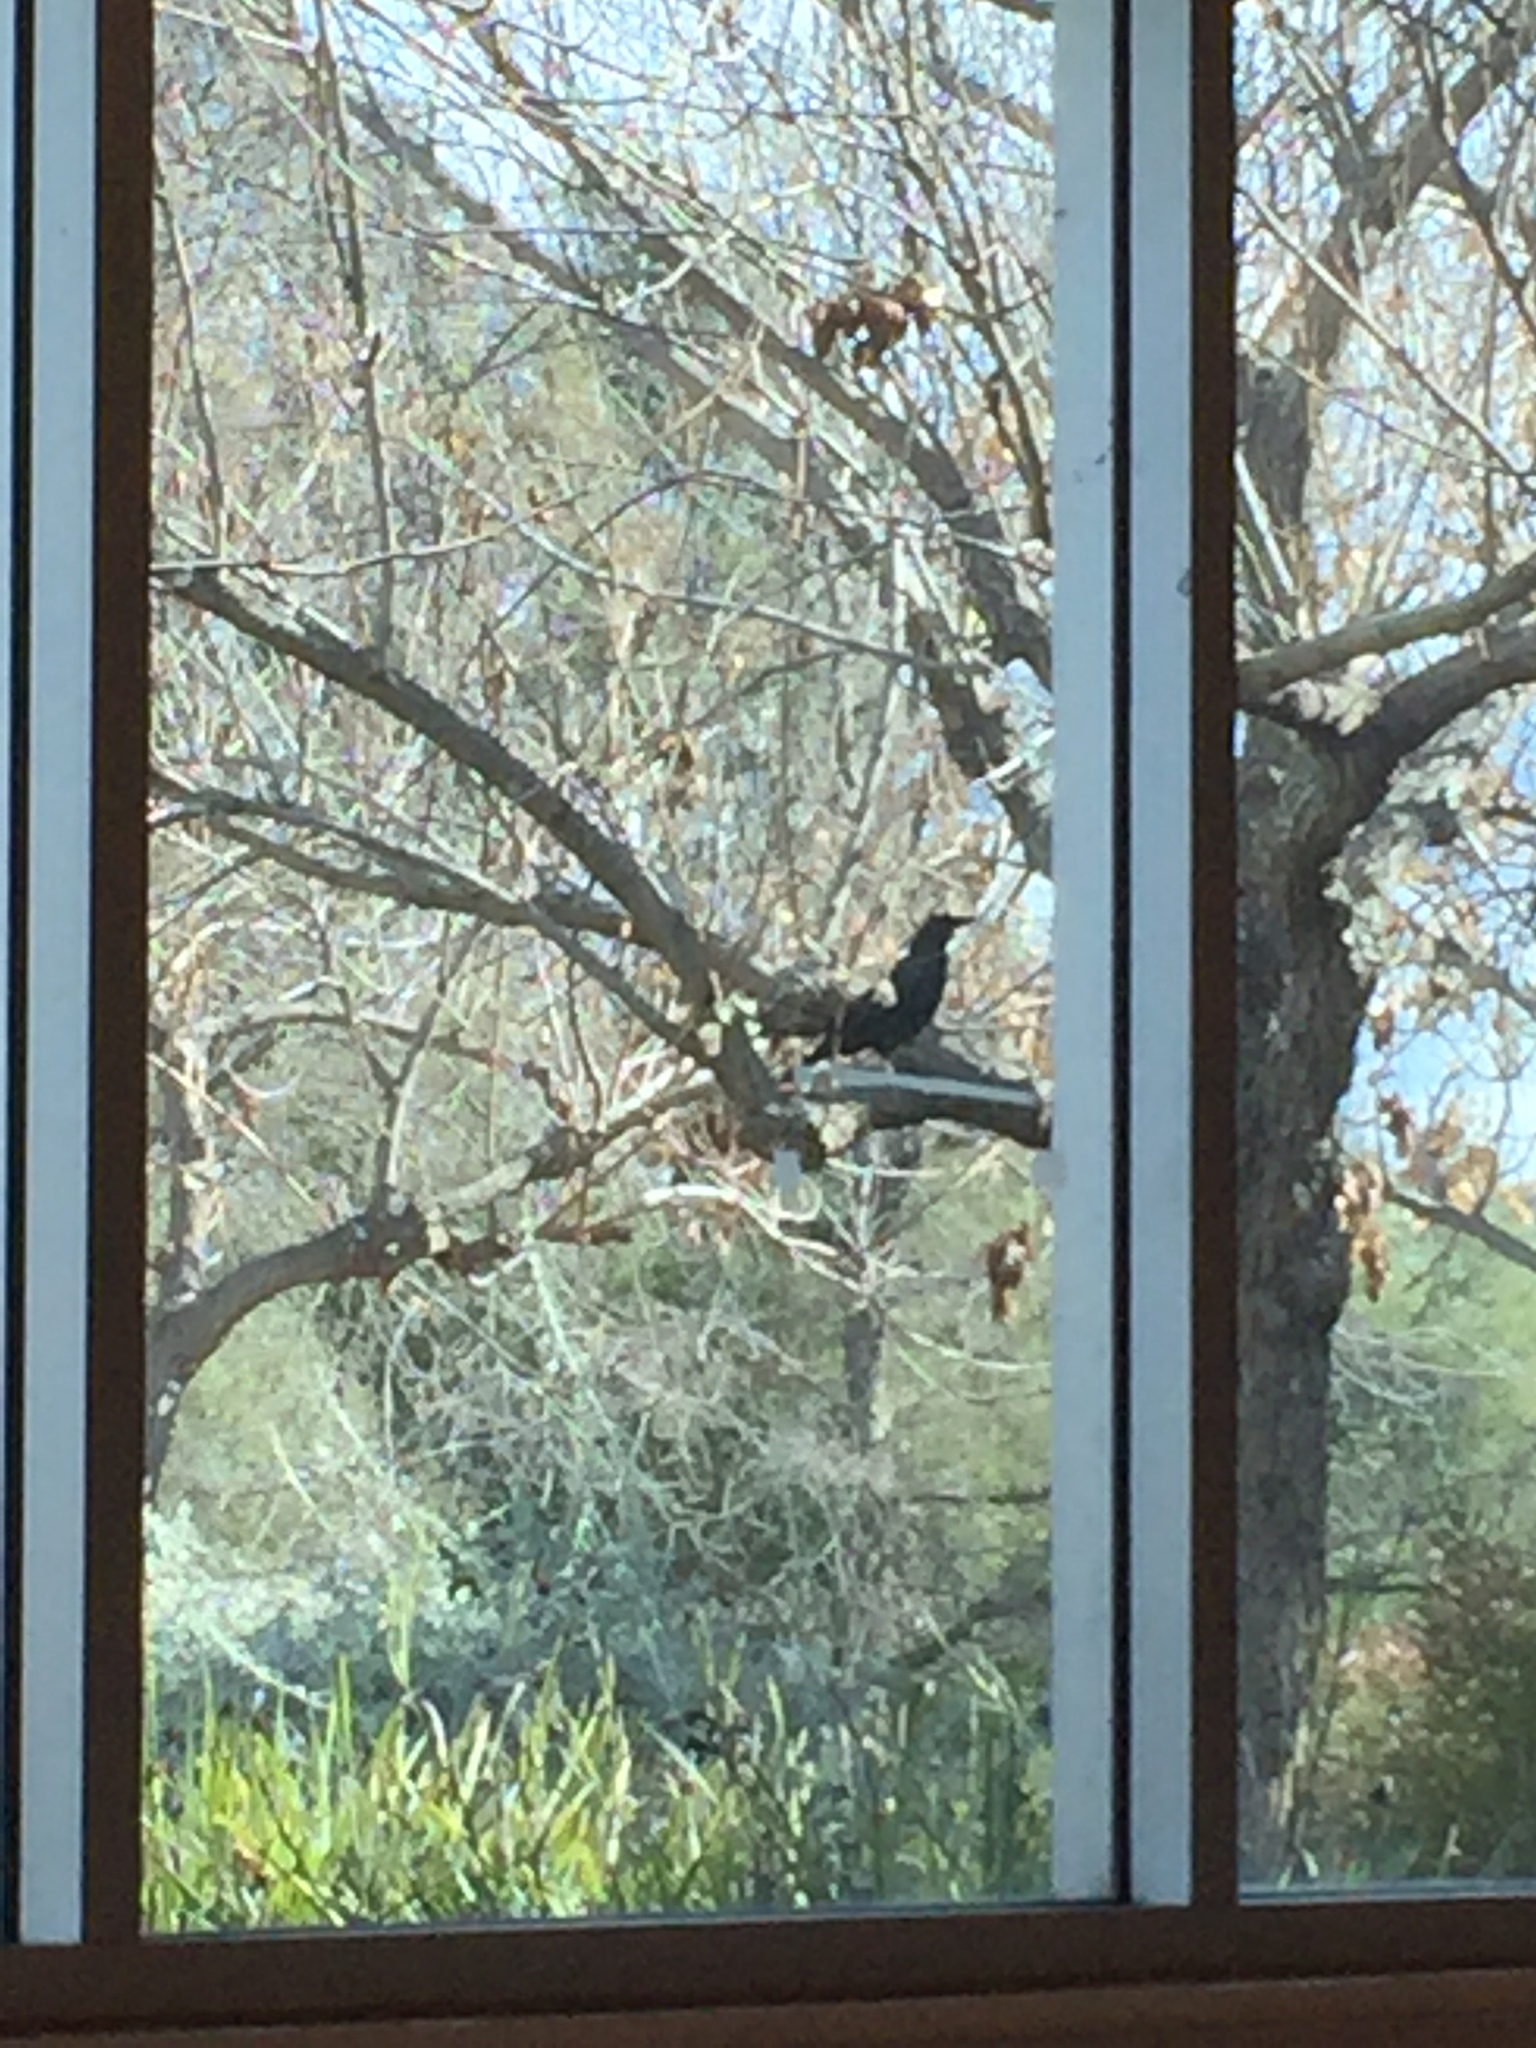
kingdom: Animalia
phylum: Chordata
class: Aves
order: Passeriformes
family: Corvidae
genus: Corvus
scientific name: Corvus brachyrhynchos
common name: American crow
